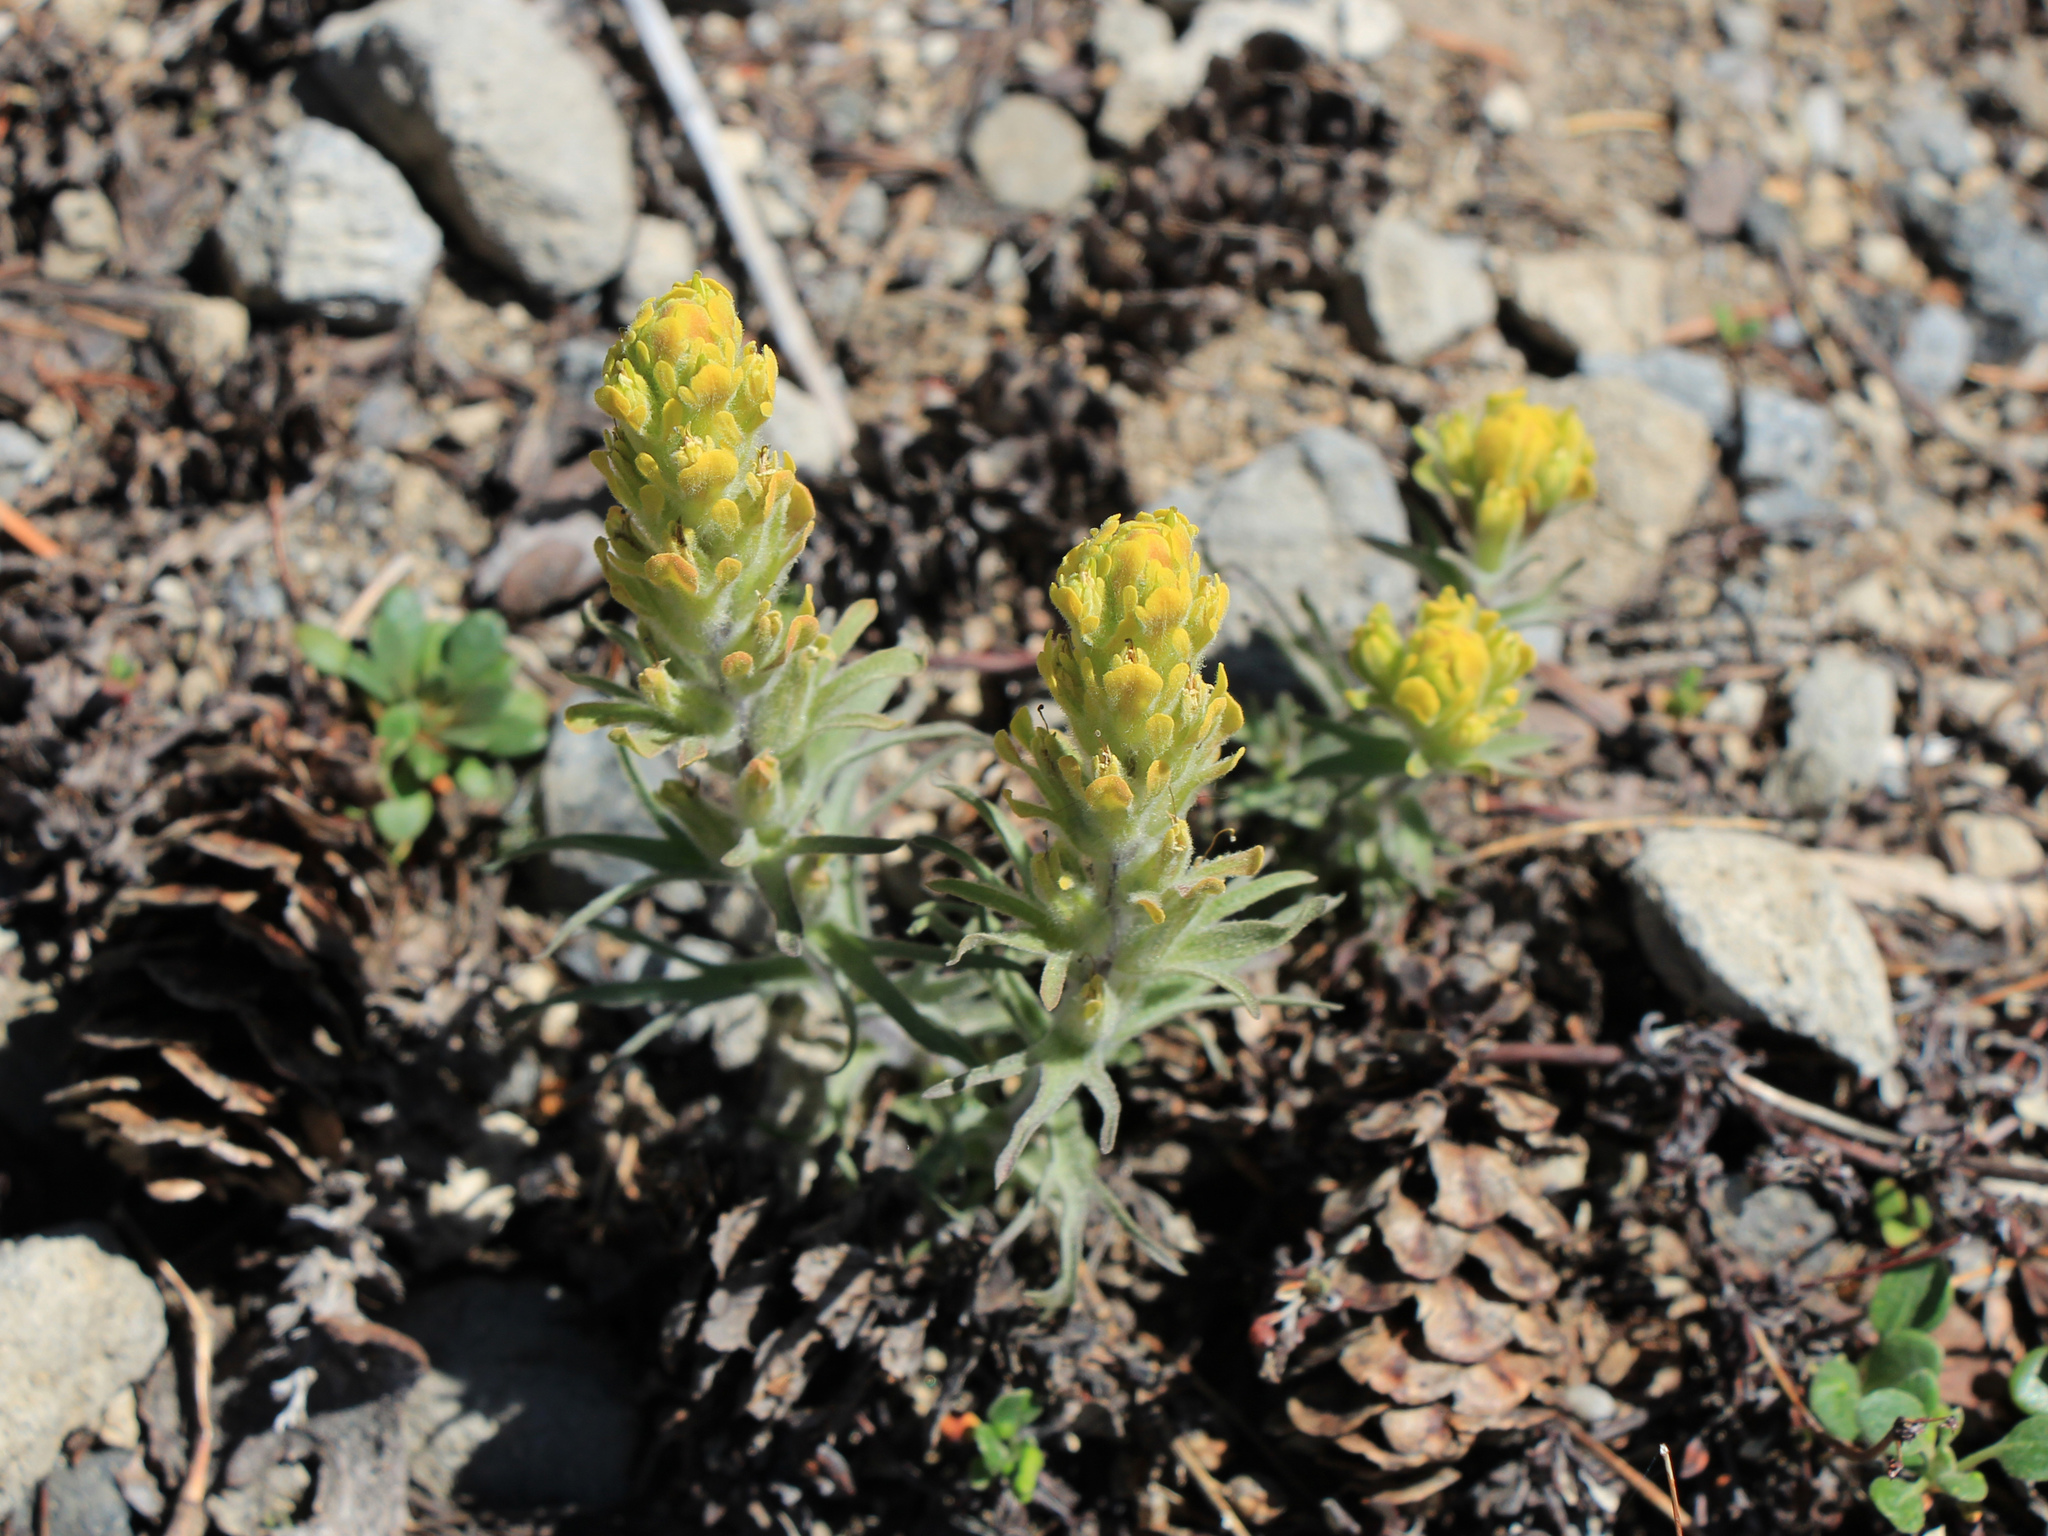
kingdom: Plantae
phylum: Tracheophyta
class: Magnoliopsida
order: Lamiales
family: Orobanchaceae
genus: Castilleja
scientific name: Castilleja arachnoidea
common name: Cobwebby indian paintbrush
